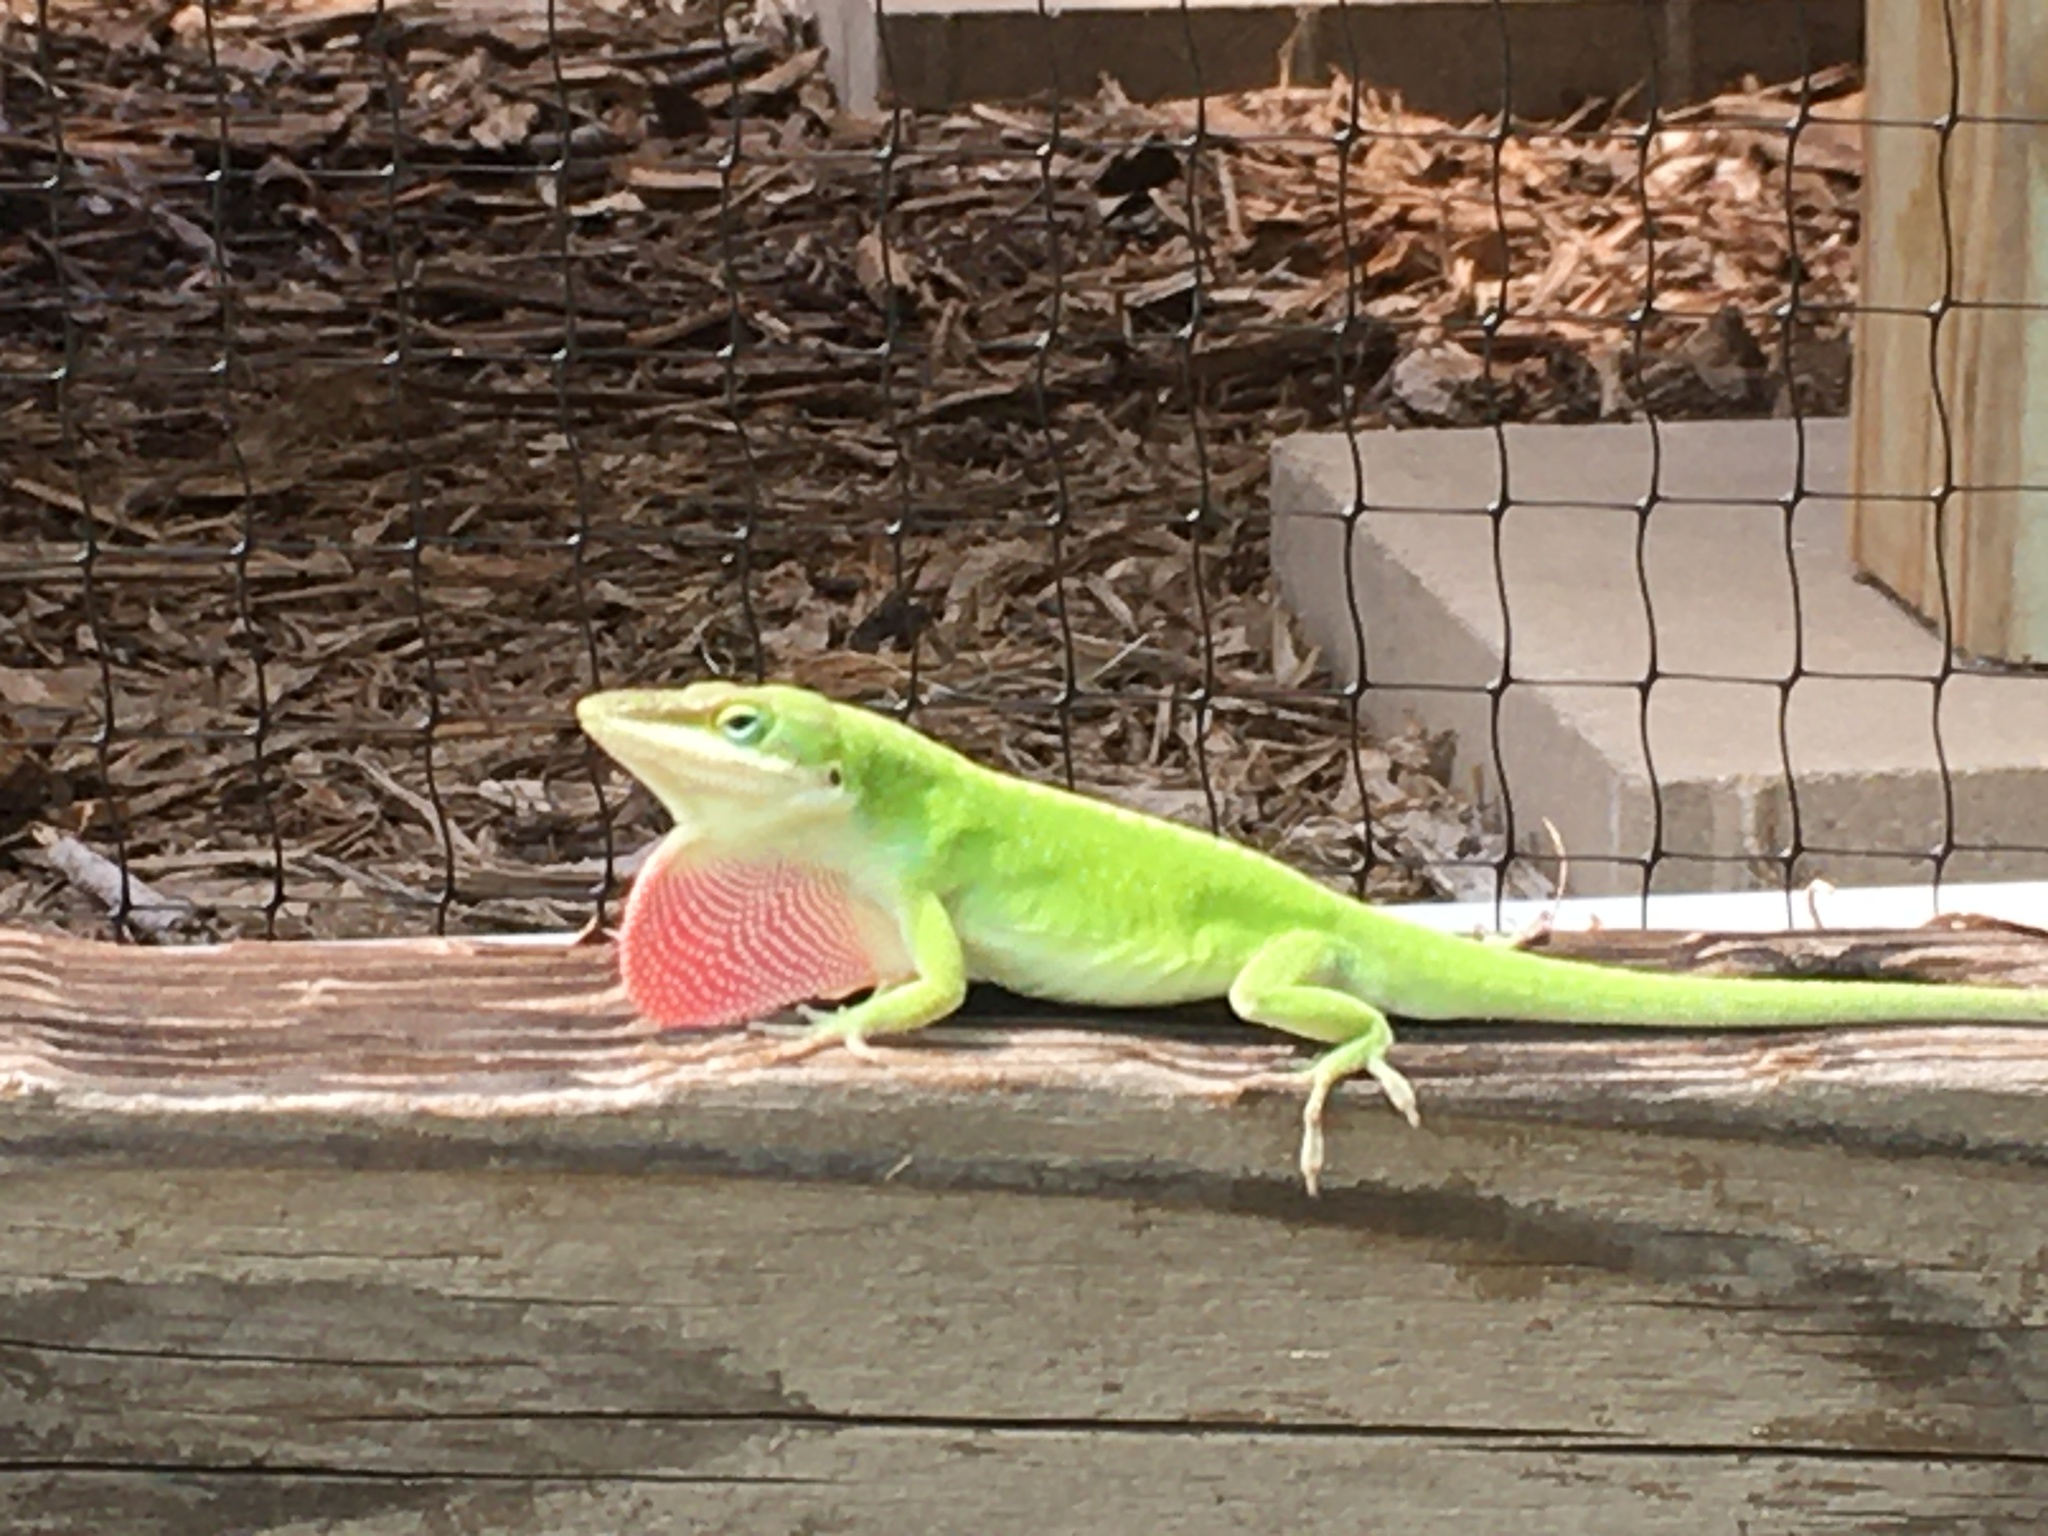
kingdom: Animalia
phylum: Chordata
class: Squamata
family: Dactyloidae
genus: Anolis
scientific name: Anolis carolinensis
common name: Green anole
